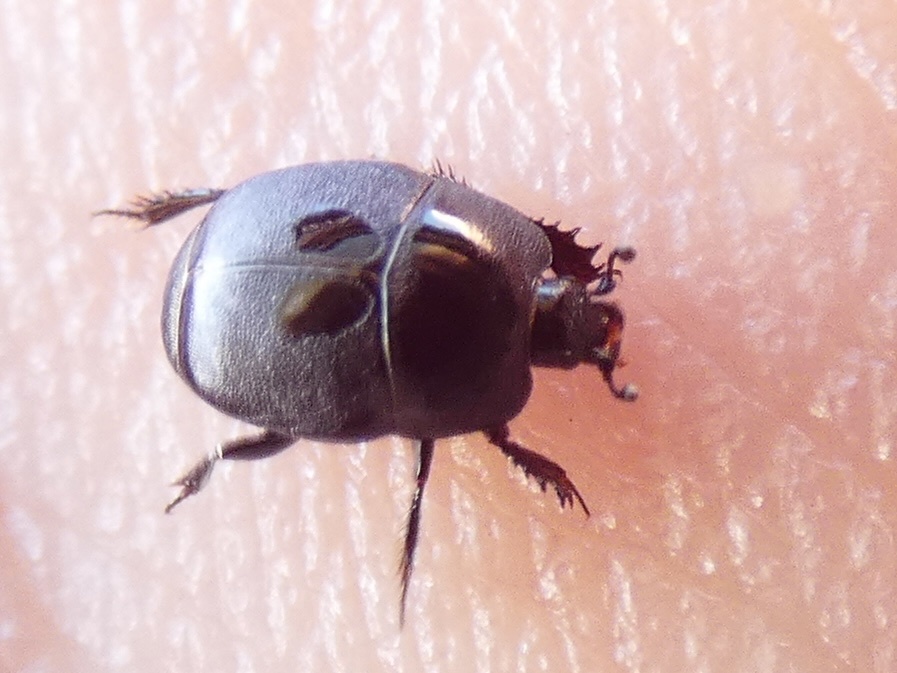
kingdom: Animalia
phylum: Arthropoda
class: Insecta
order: Coleoptera
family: Histeridae
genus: Hypocaccus
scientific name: Hypocaccus rugiceps
